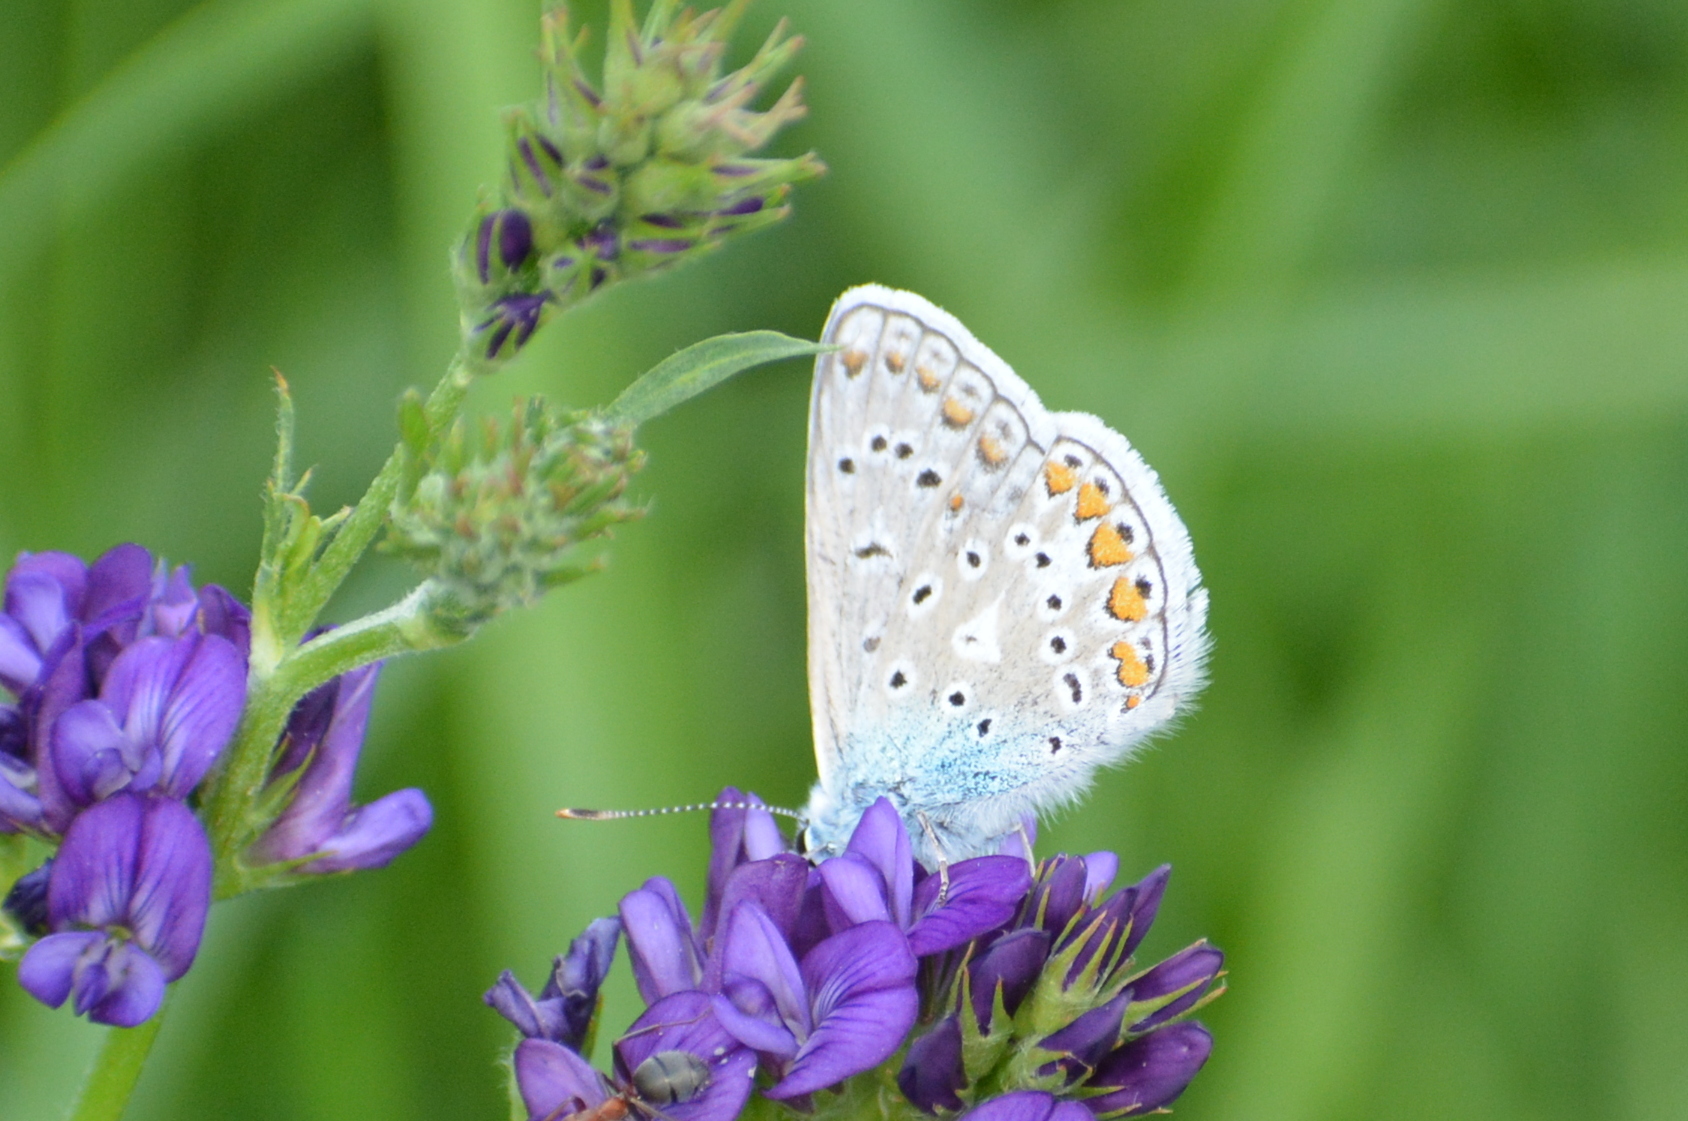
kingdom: Animalia
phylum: Arthropoda
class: Insecta
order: Lepidoptera
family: Lycaenidae
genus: Polyommatus
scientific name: Polyommatus icarus
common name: Common blue
